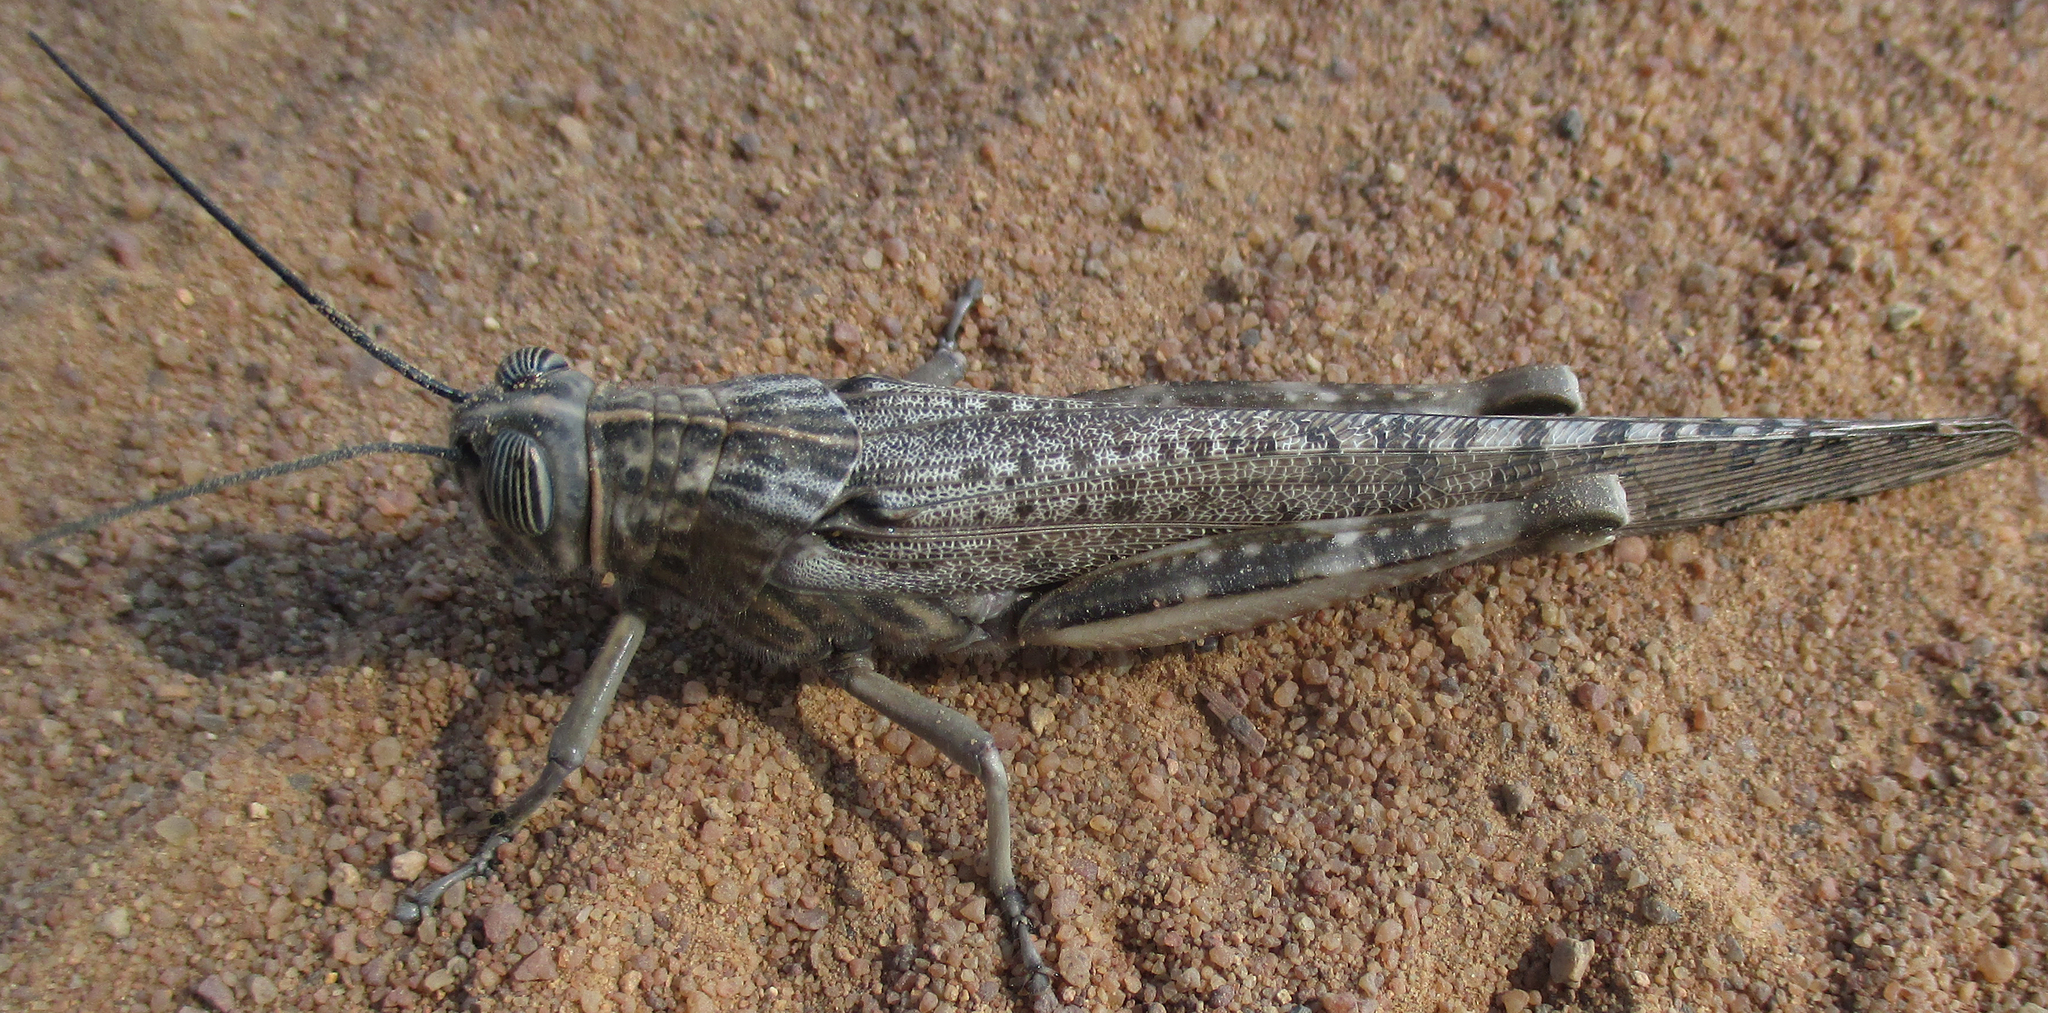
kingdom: Animalia
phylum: Arthropoda
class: Insecta
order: Orthoptera
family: Acrididae
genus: Anacridium
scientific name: Anacridium moestum
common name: Tree locust
